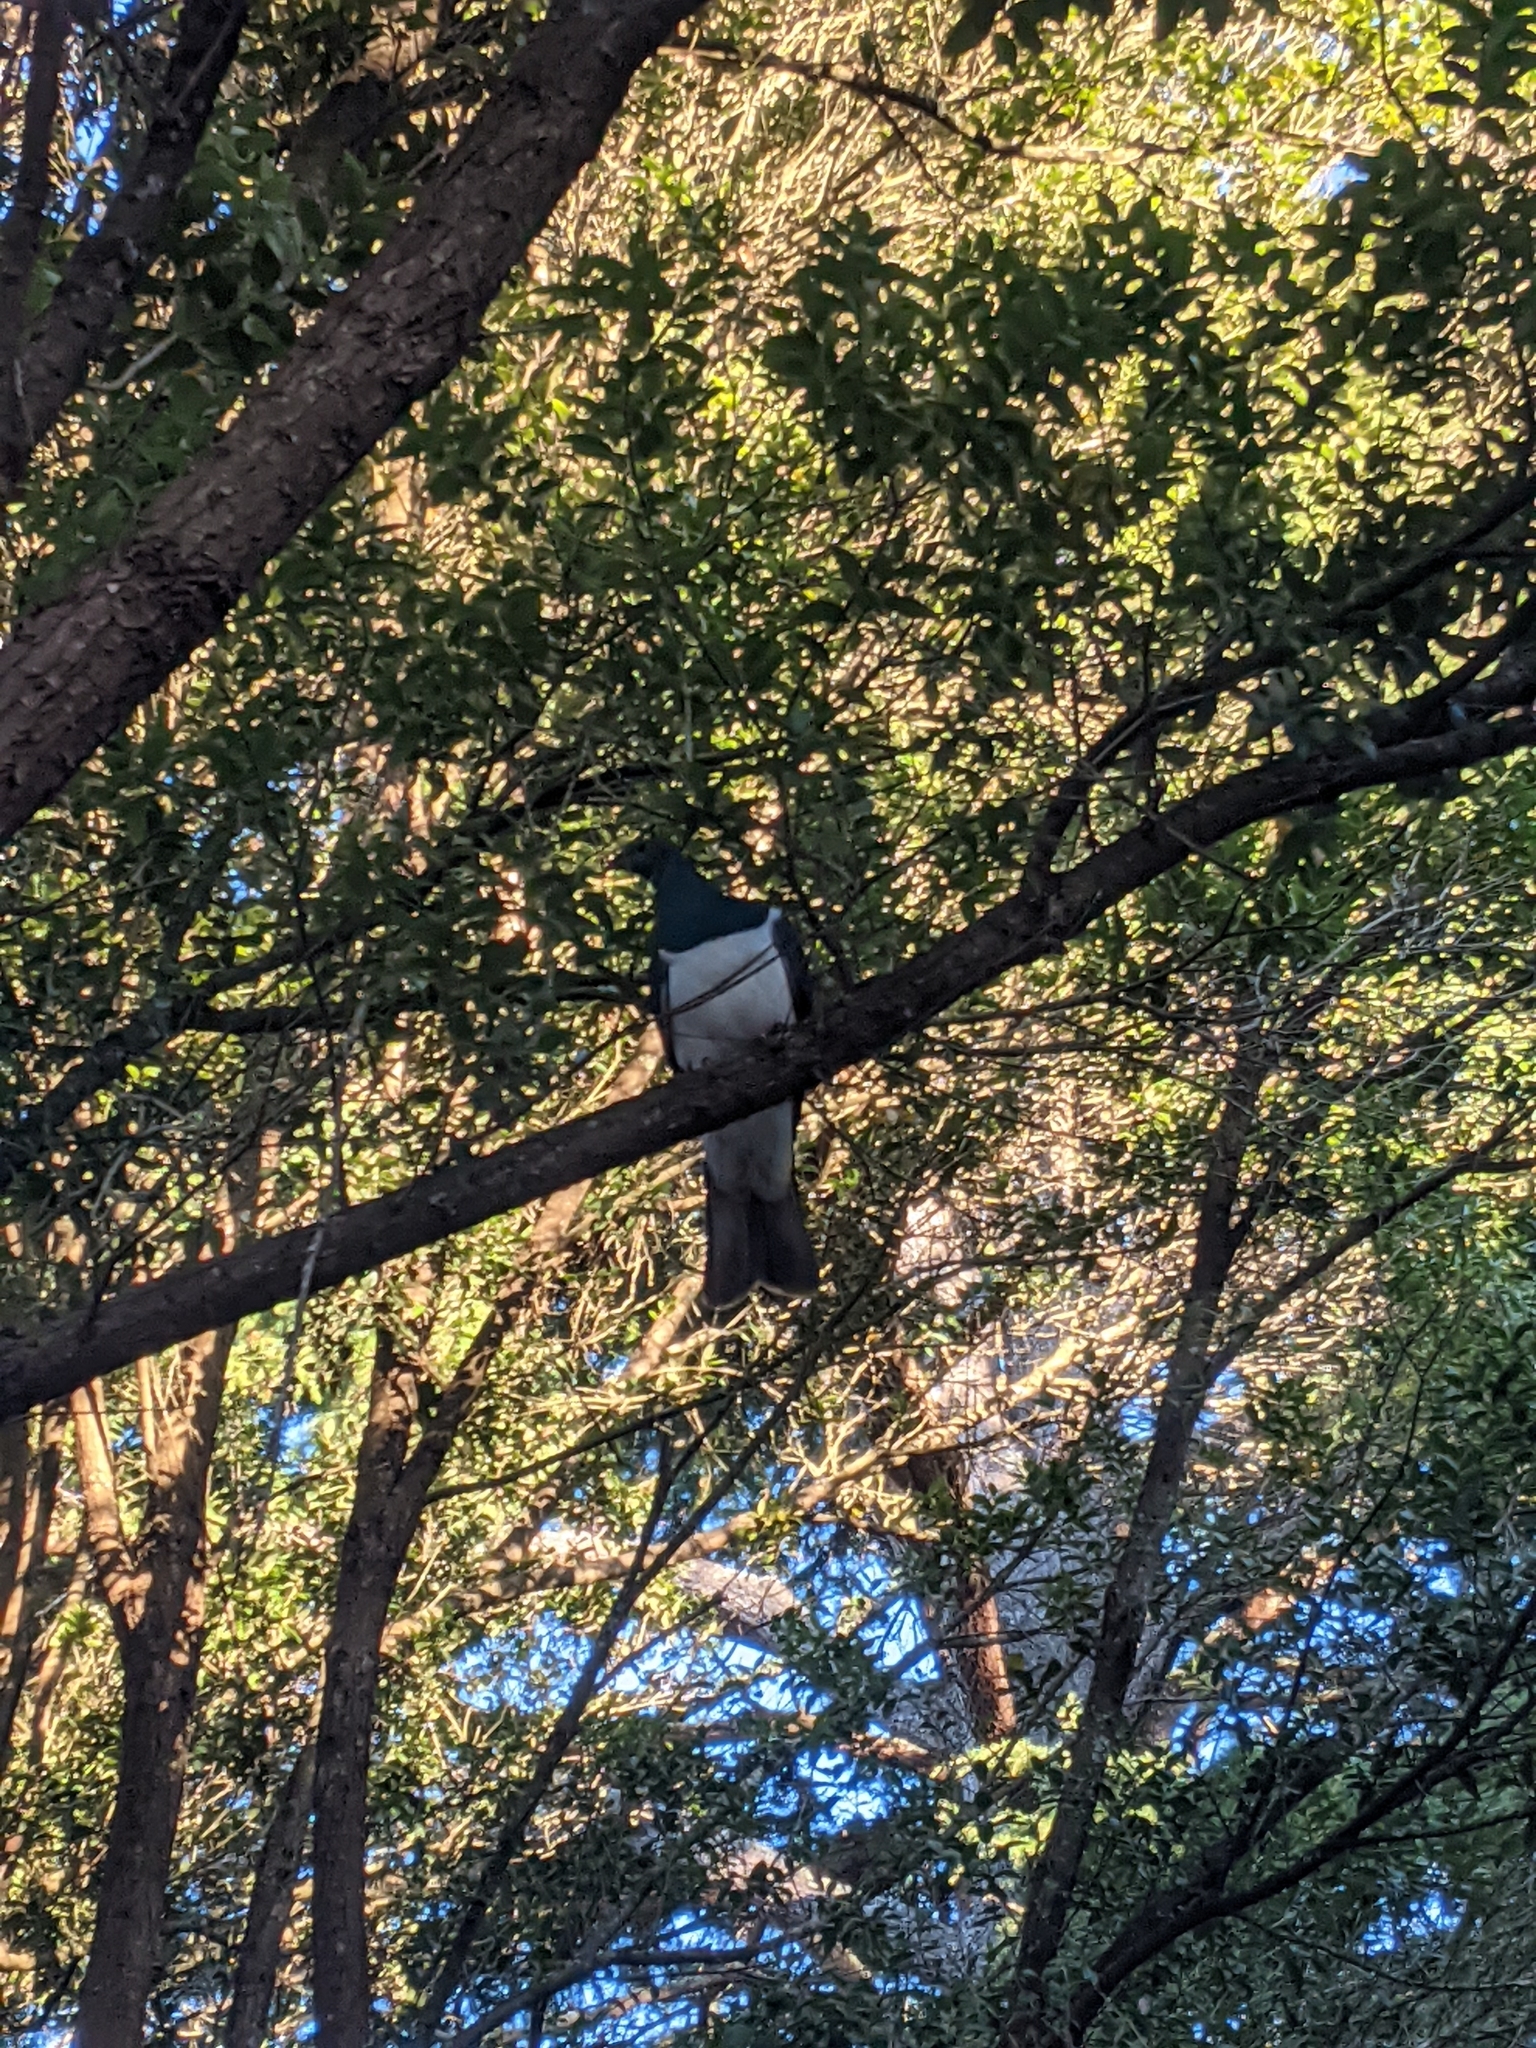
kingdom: Animalia
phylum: Chordata
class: Aves
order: Columbiformes
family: Columbidae
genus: Hemiphaga
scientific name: Hemiphaga novaeseelandiae
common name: New zealand pigeon
